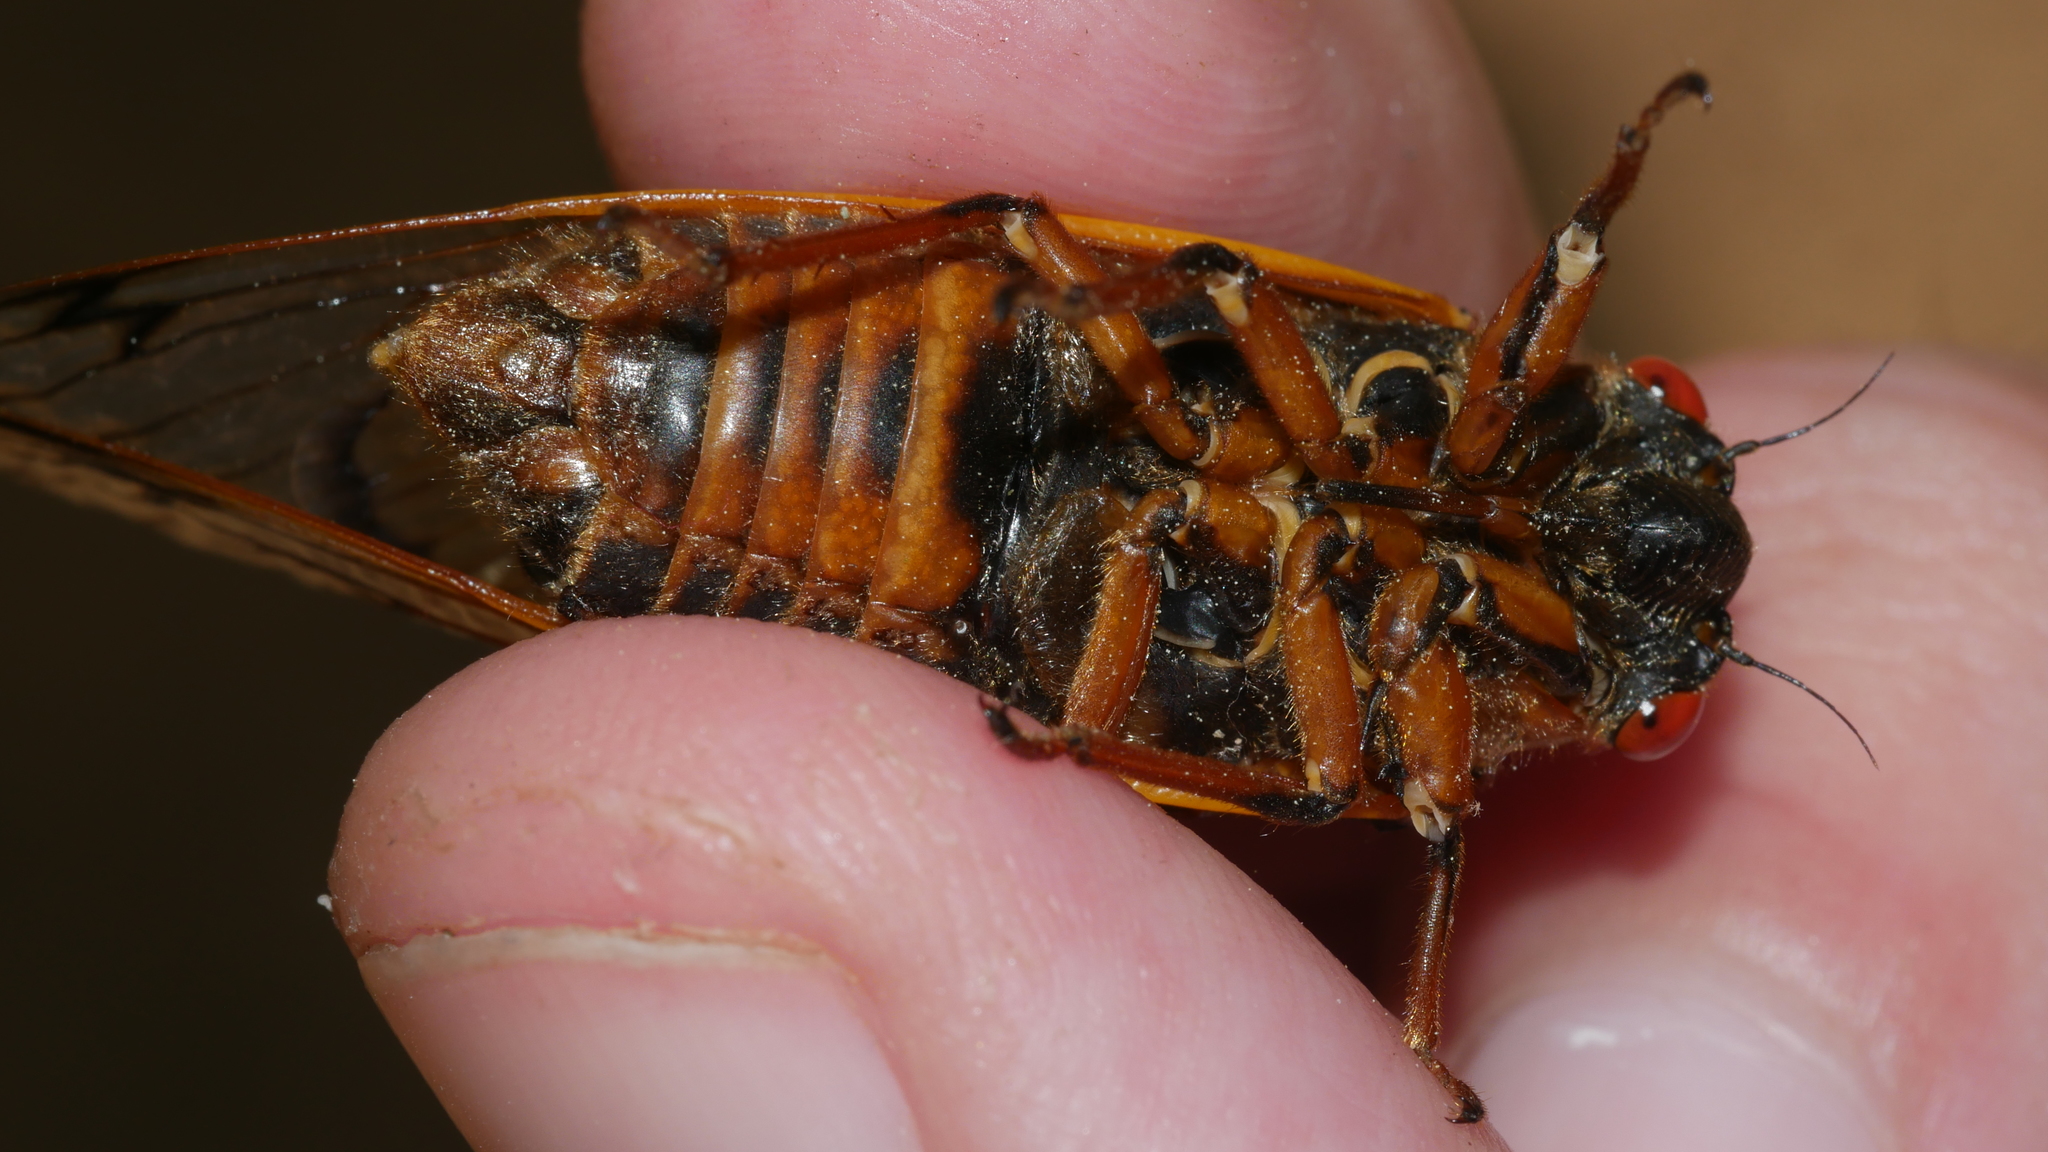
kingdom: Animalia
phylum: Arthropoda
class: Insecta
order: Hemiptera
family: Cicadidae
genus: Magicicada
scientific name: Magicicada septendecim
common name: Periodical cicada
